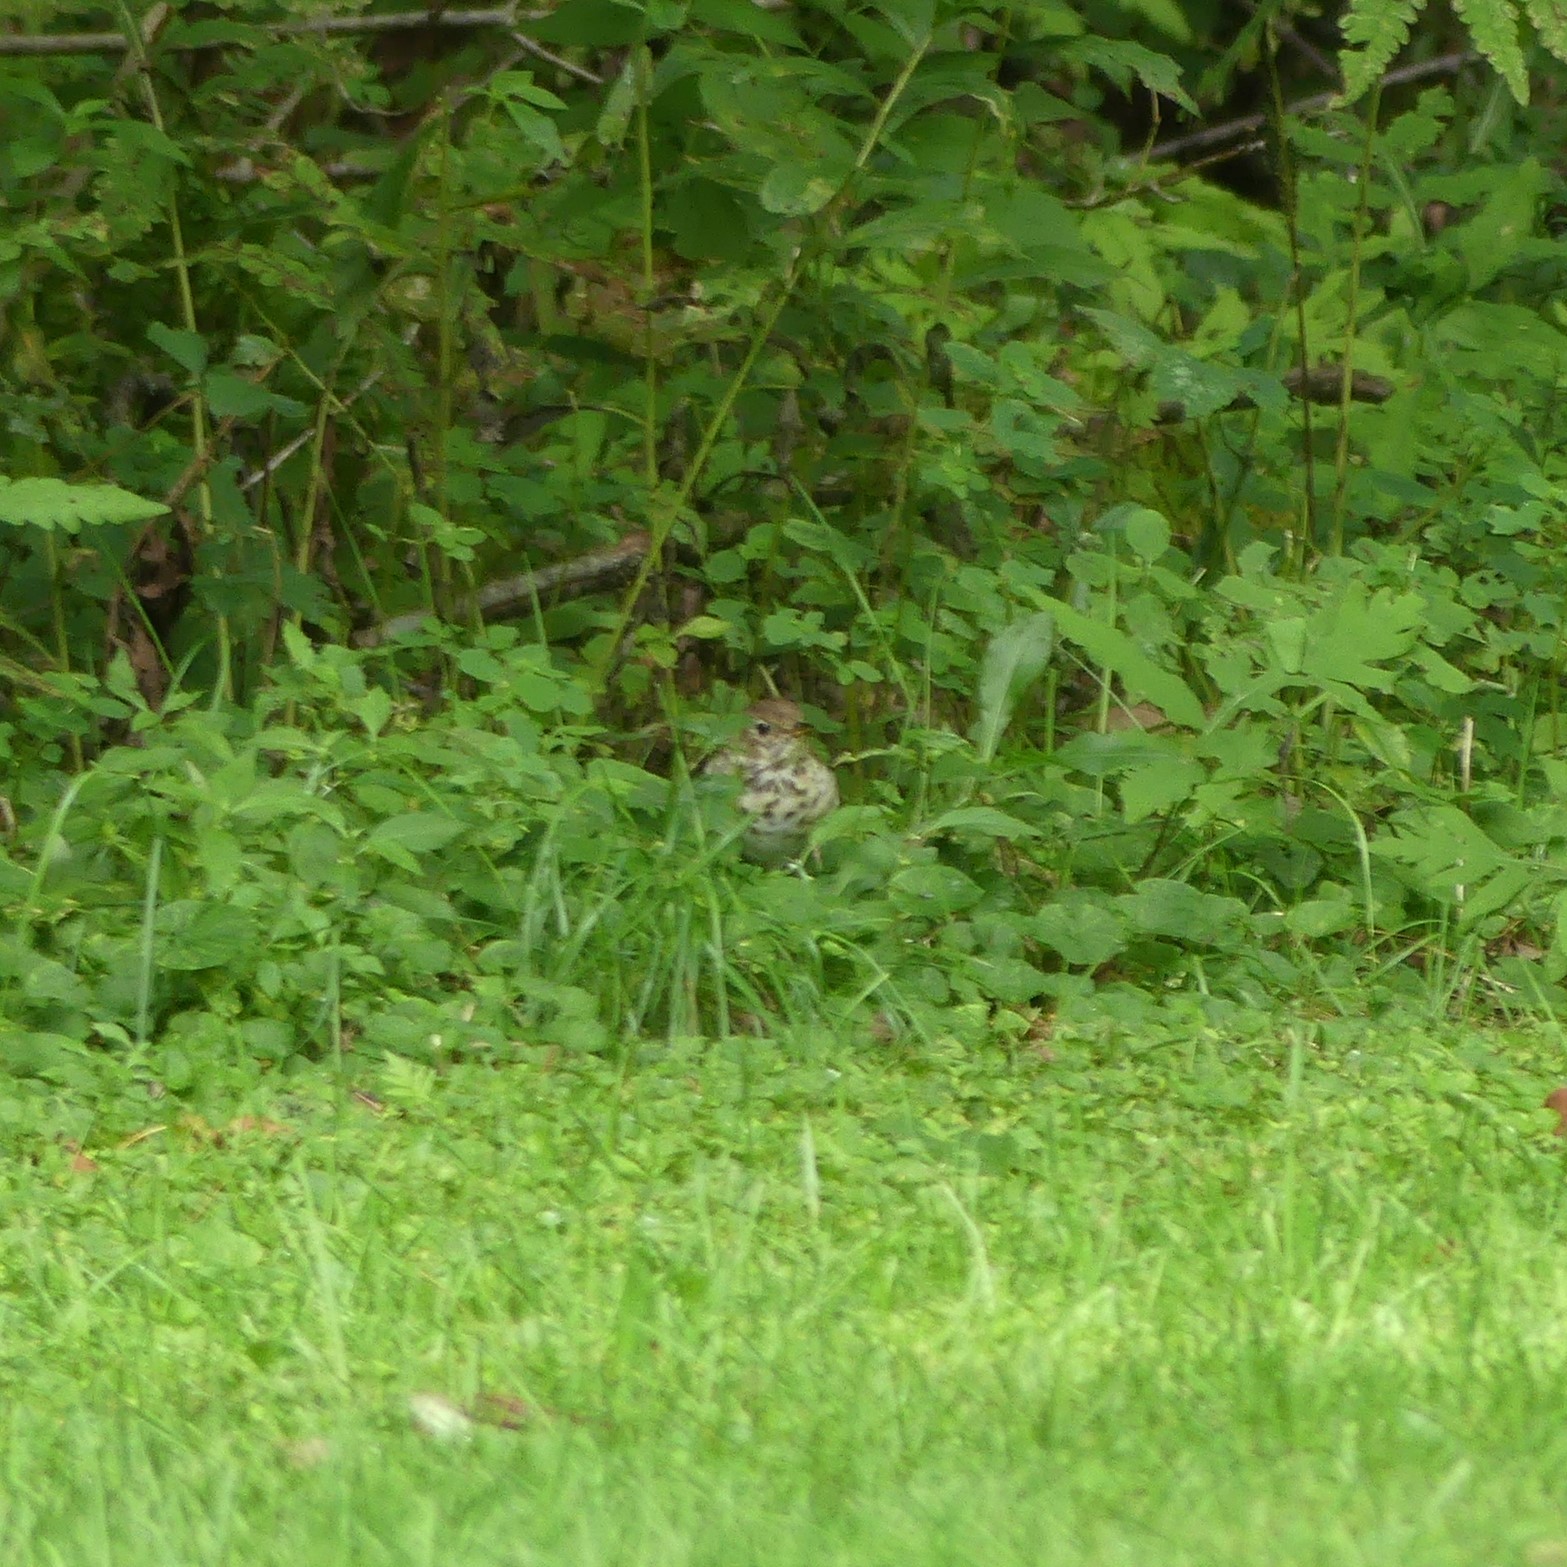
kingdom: Animalia
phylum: Chordata
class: Aves
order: Passeriformes
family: Turdidae
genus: Catharus
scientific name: Catharus guttatus
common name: Hermit thrush
